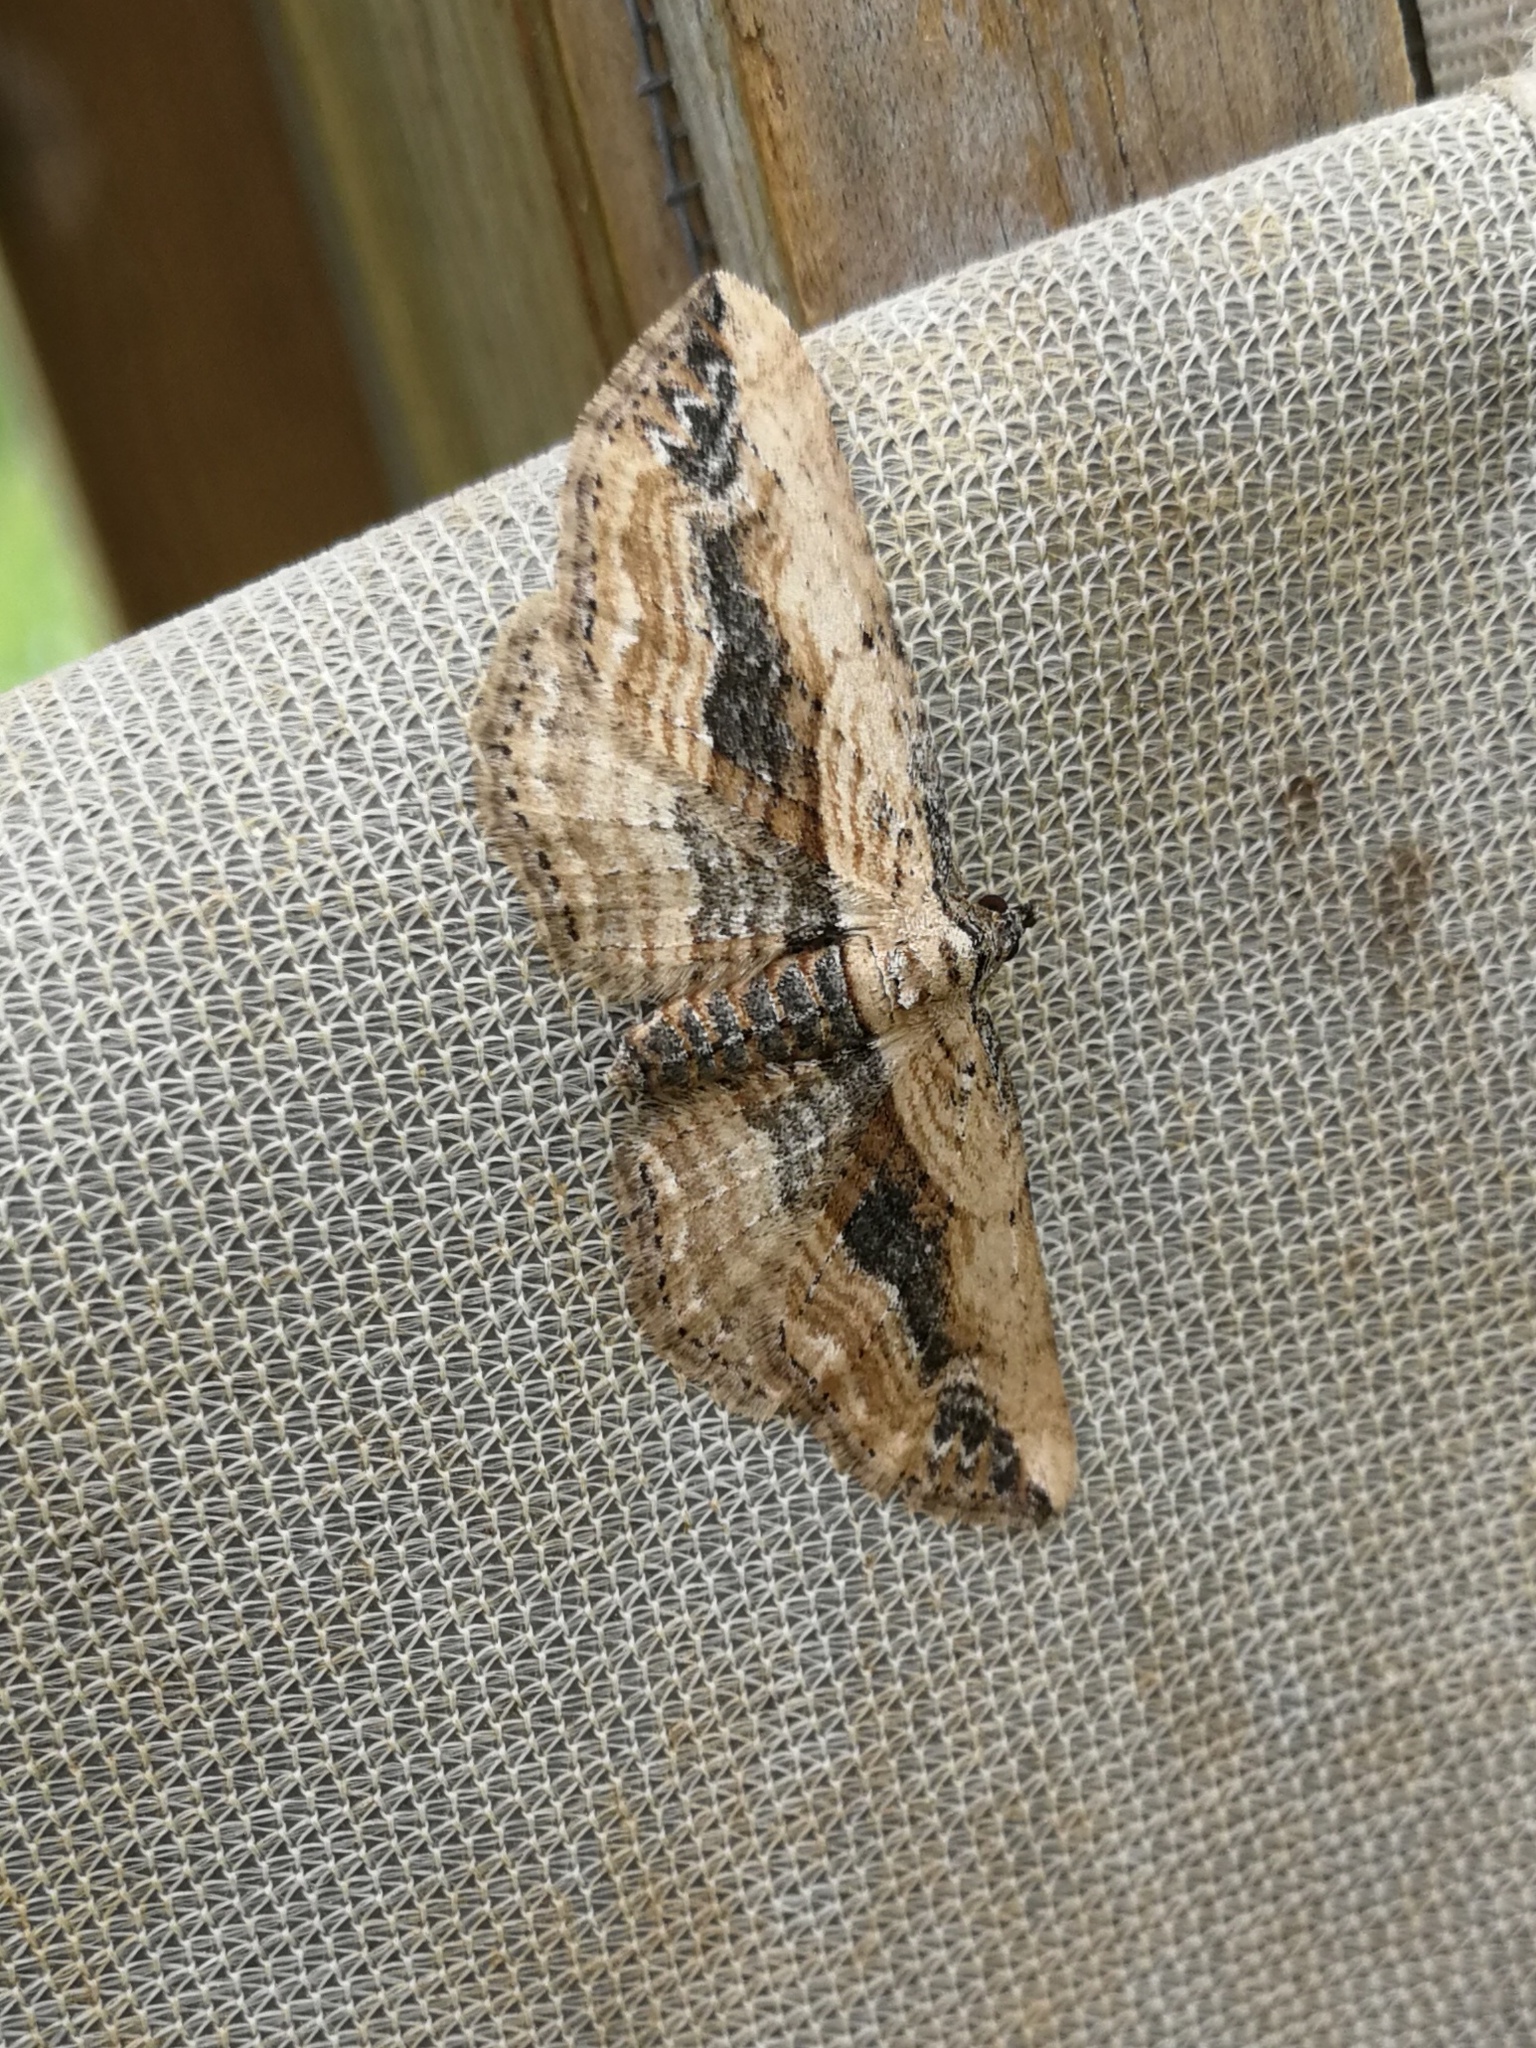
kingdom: Animalia
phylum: Arthropoda
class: Insecta
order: Lepidoptera
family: Geometridae
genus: Horisme
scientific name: Horisme vitalbata
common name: Small waved umber
